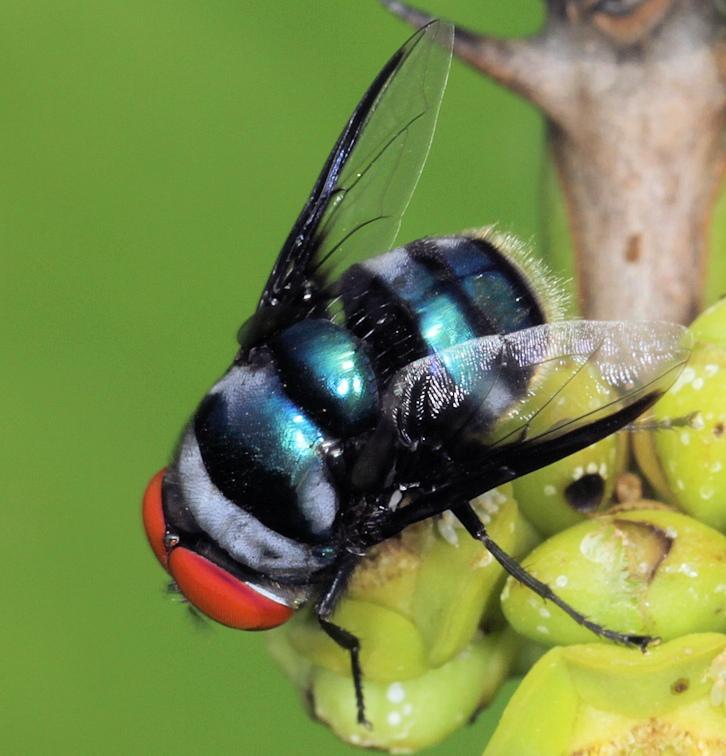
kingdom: Animalia
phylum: Arthropoda
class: Insecta
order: Diptera
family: Calliphoridae
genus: Chrysomya
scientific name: Chrysomya marginalis
